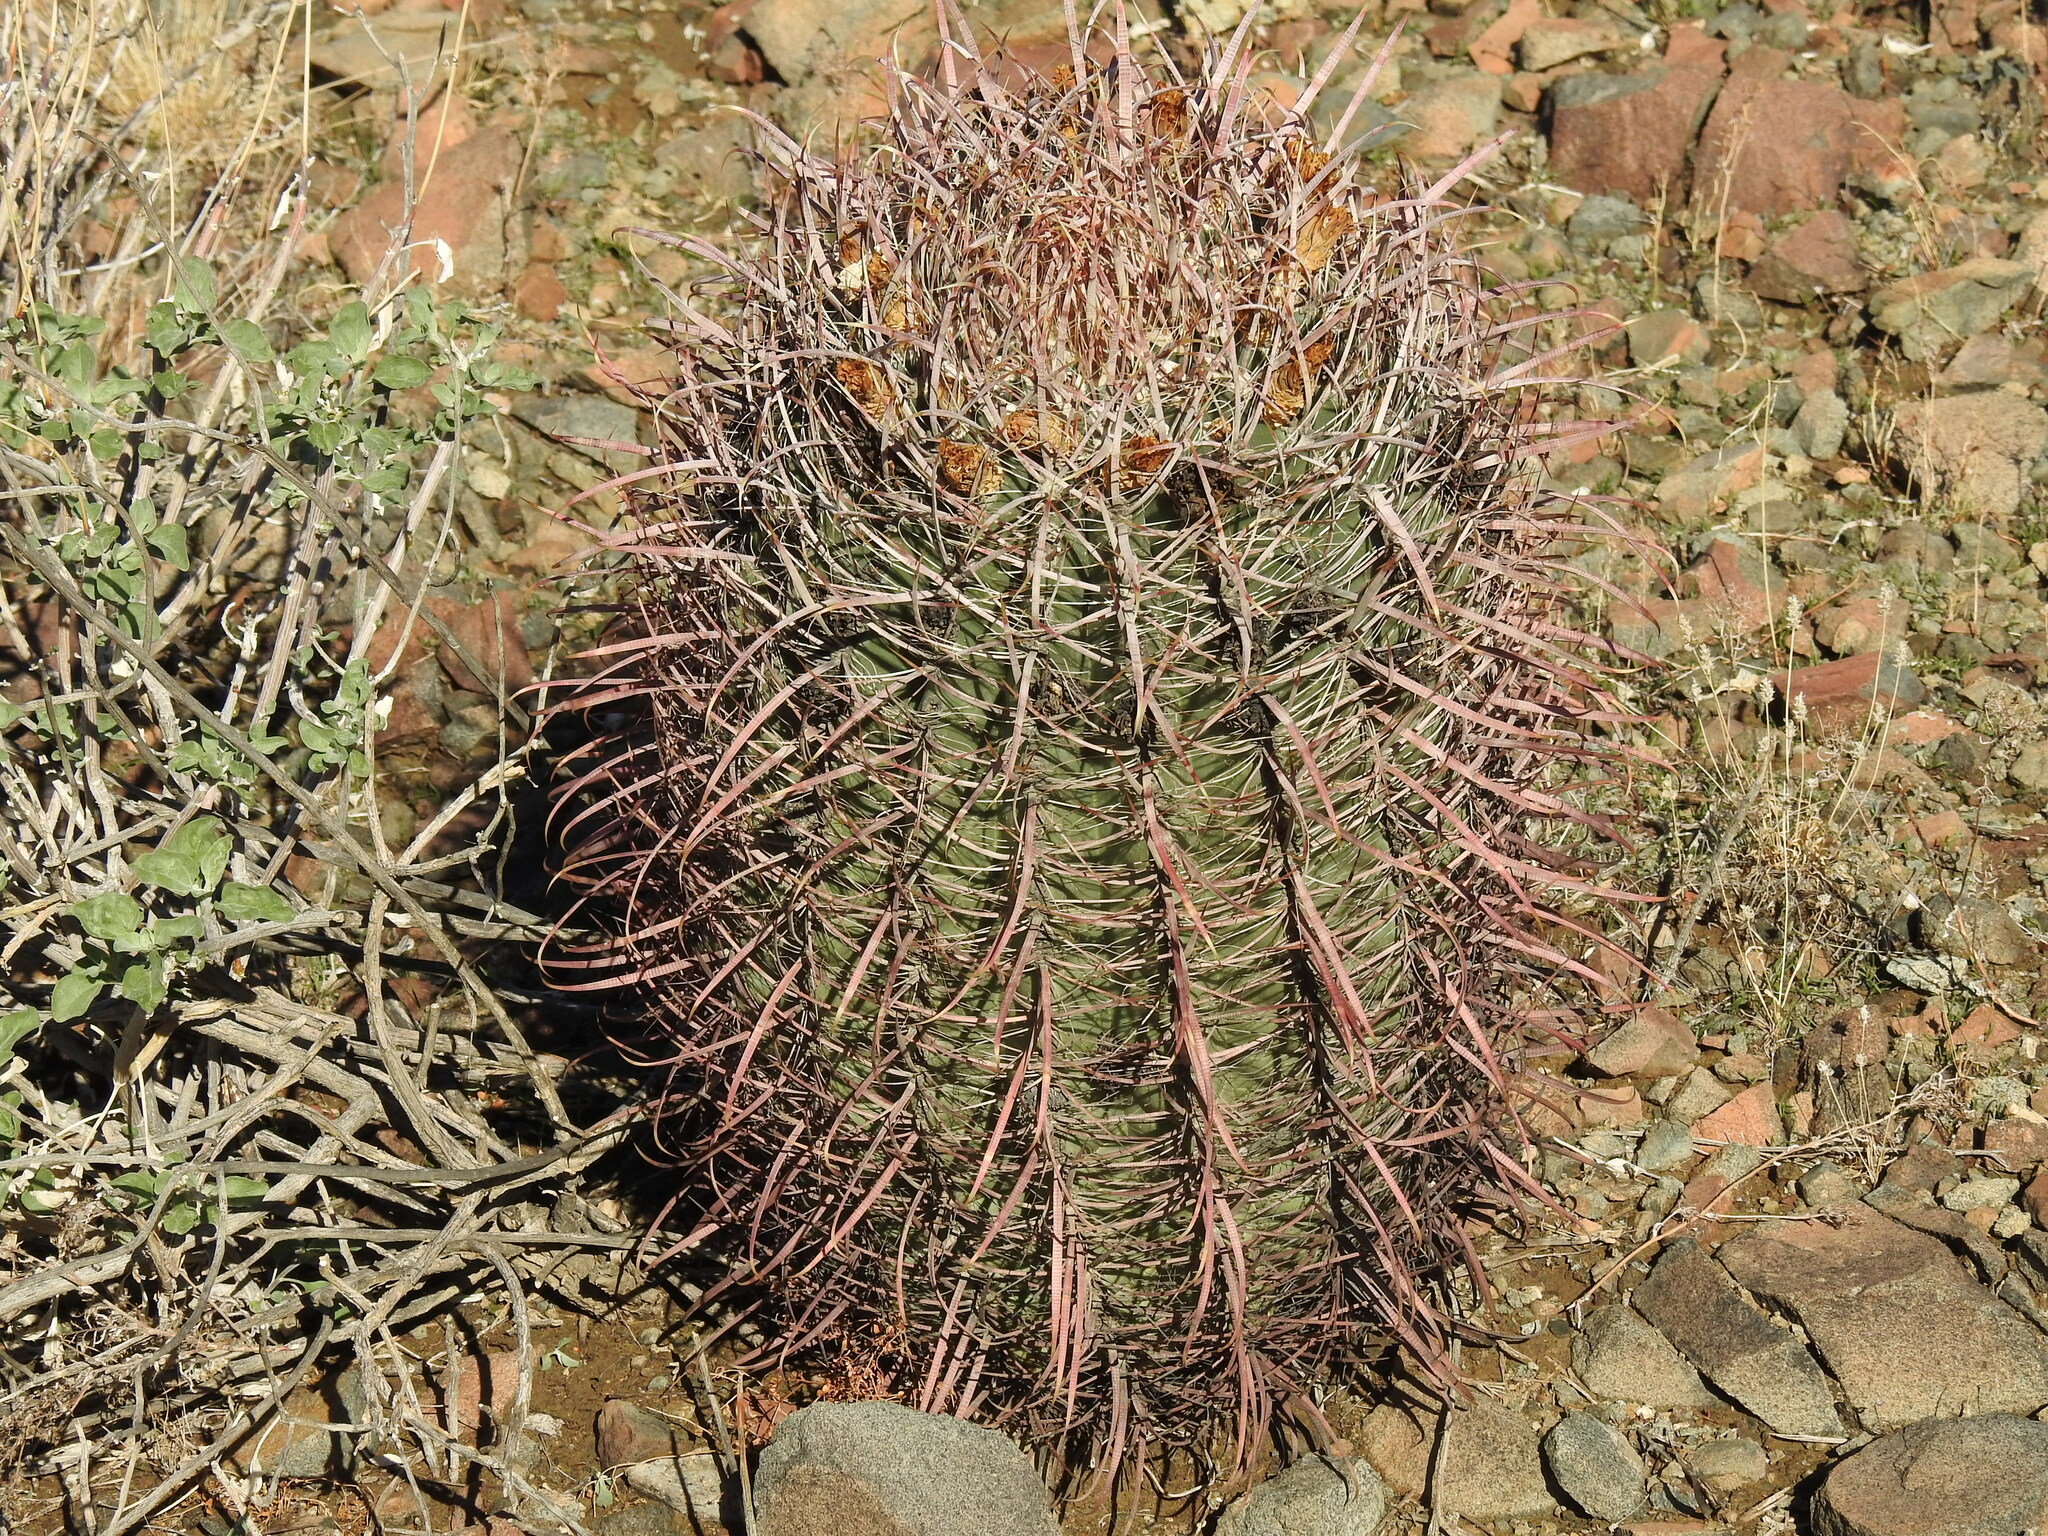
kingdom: Plantae
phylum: Tracheophyta
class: Magnoliopsida
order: Caryophyllales
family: Cactaceae
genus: Ferocactus
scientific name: Ferocactus cylindraceus
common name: California barrel cactus
